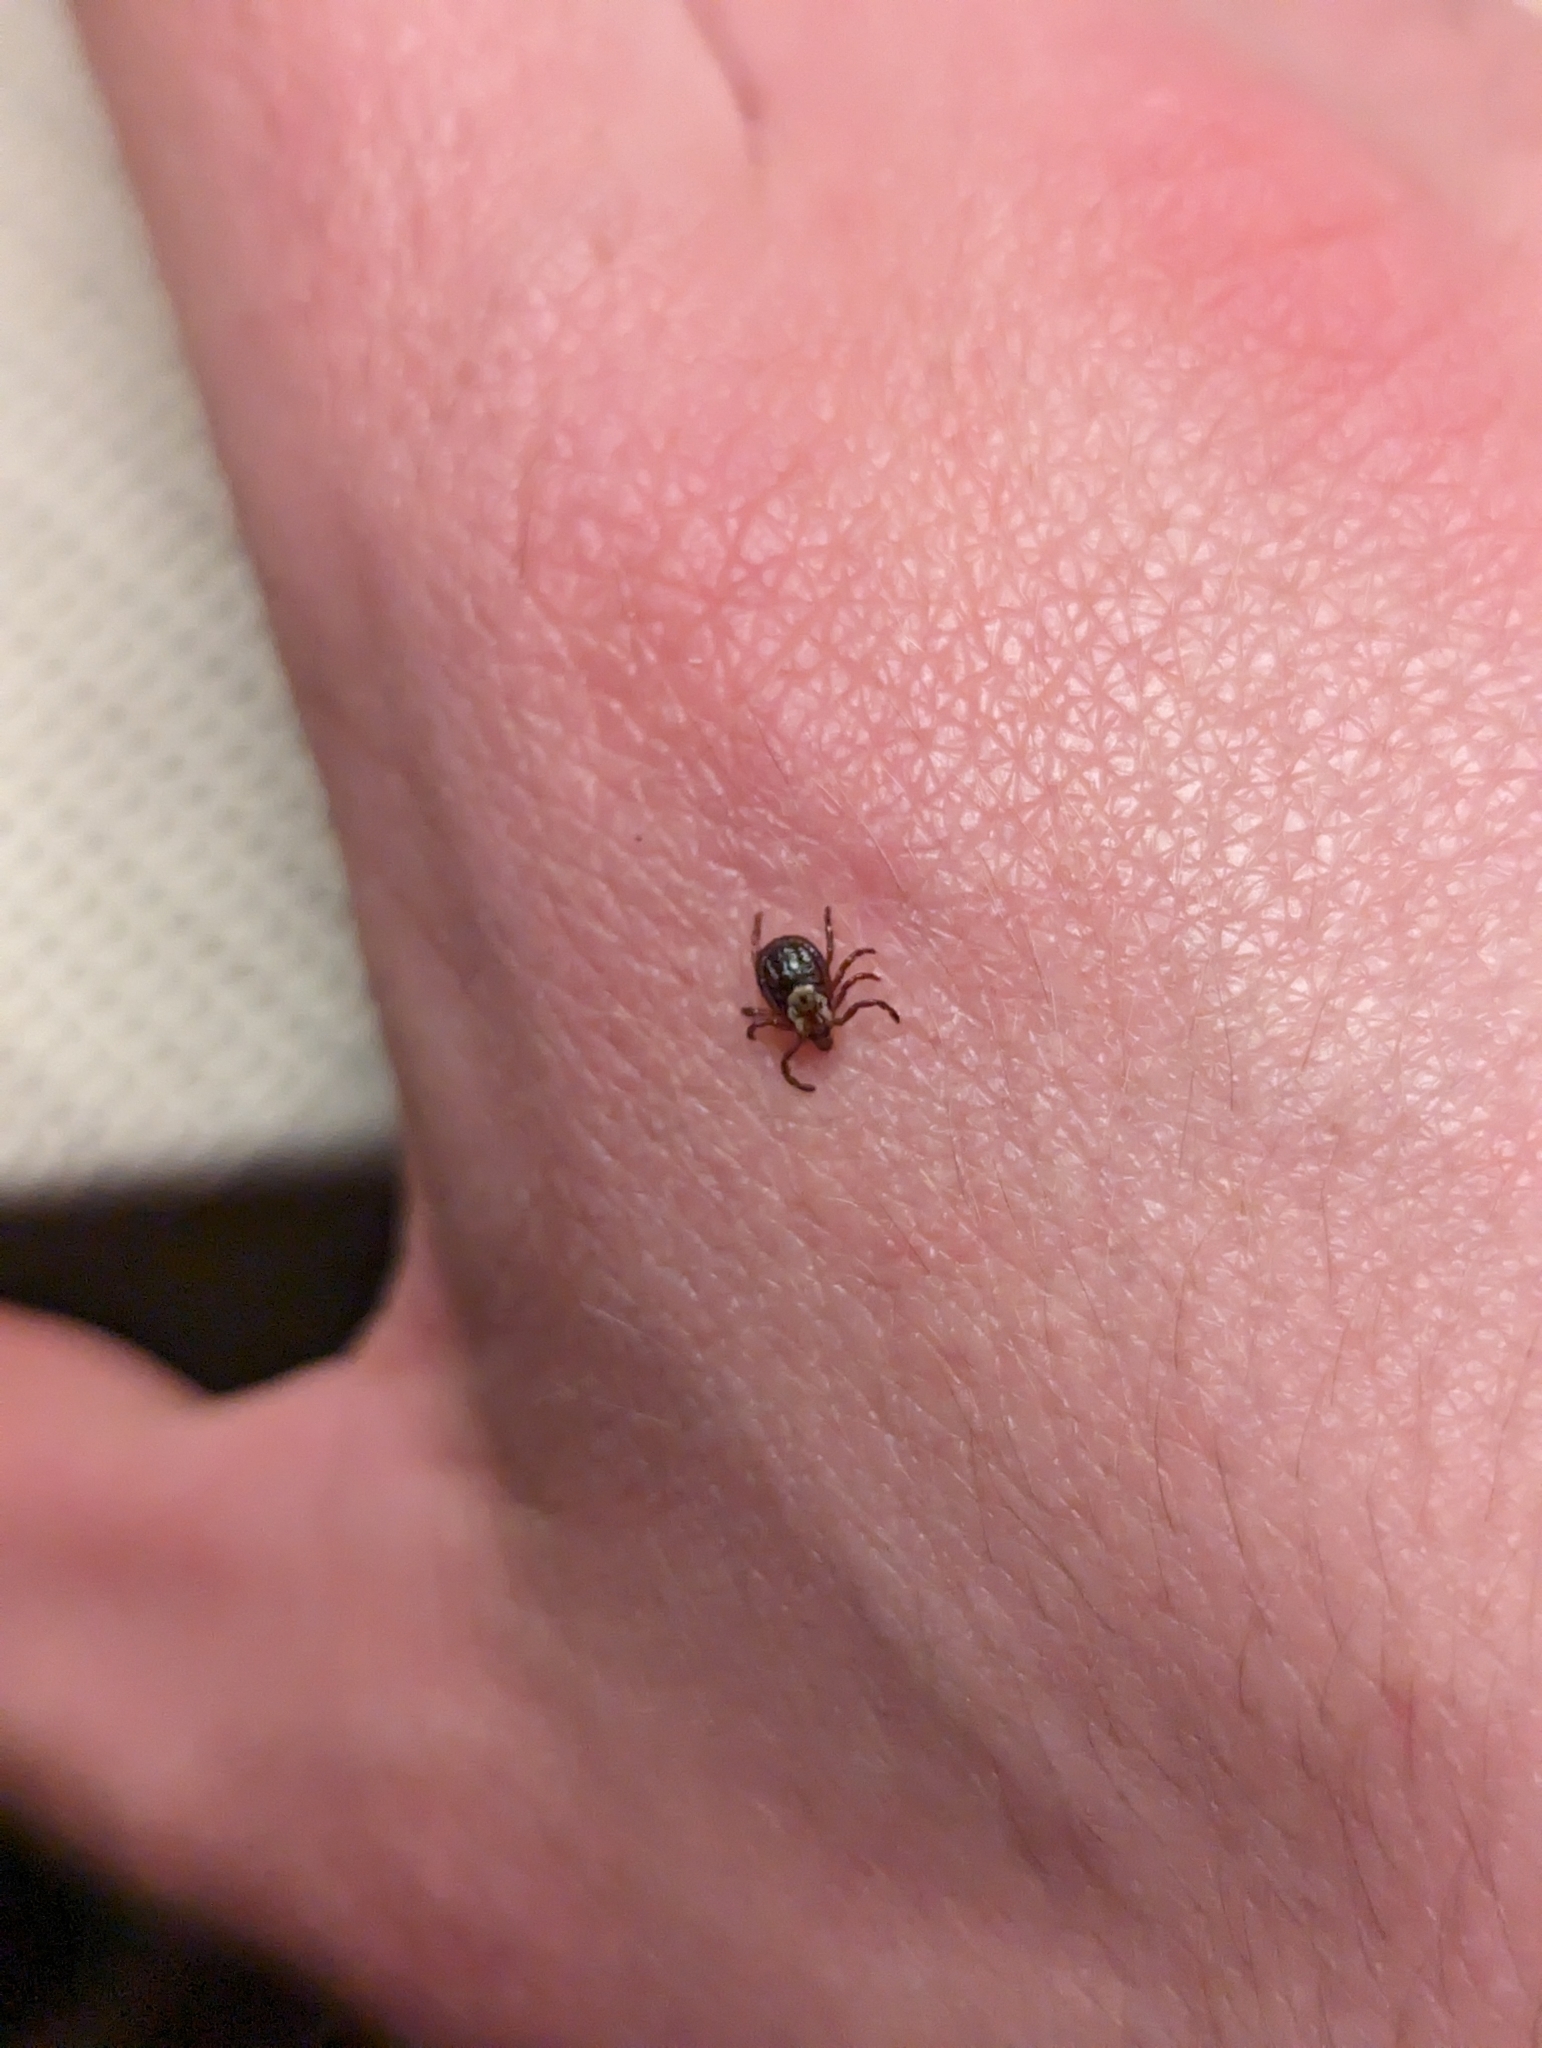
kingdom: Animalia
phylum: Arthropoda
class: Arachnida
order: Ixodida
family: Ixodidae
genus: Dermacentor
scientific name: Dermacentor variabilis
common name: American dog tick
